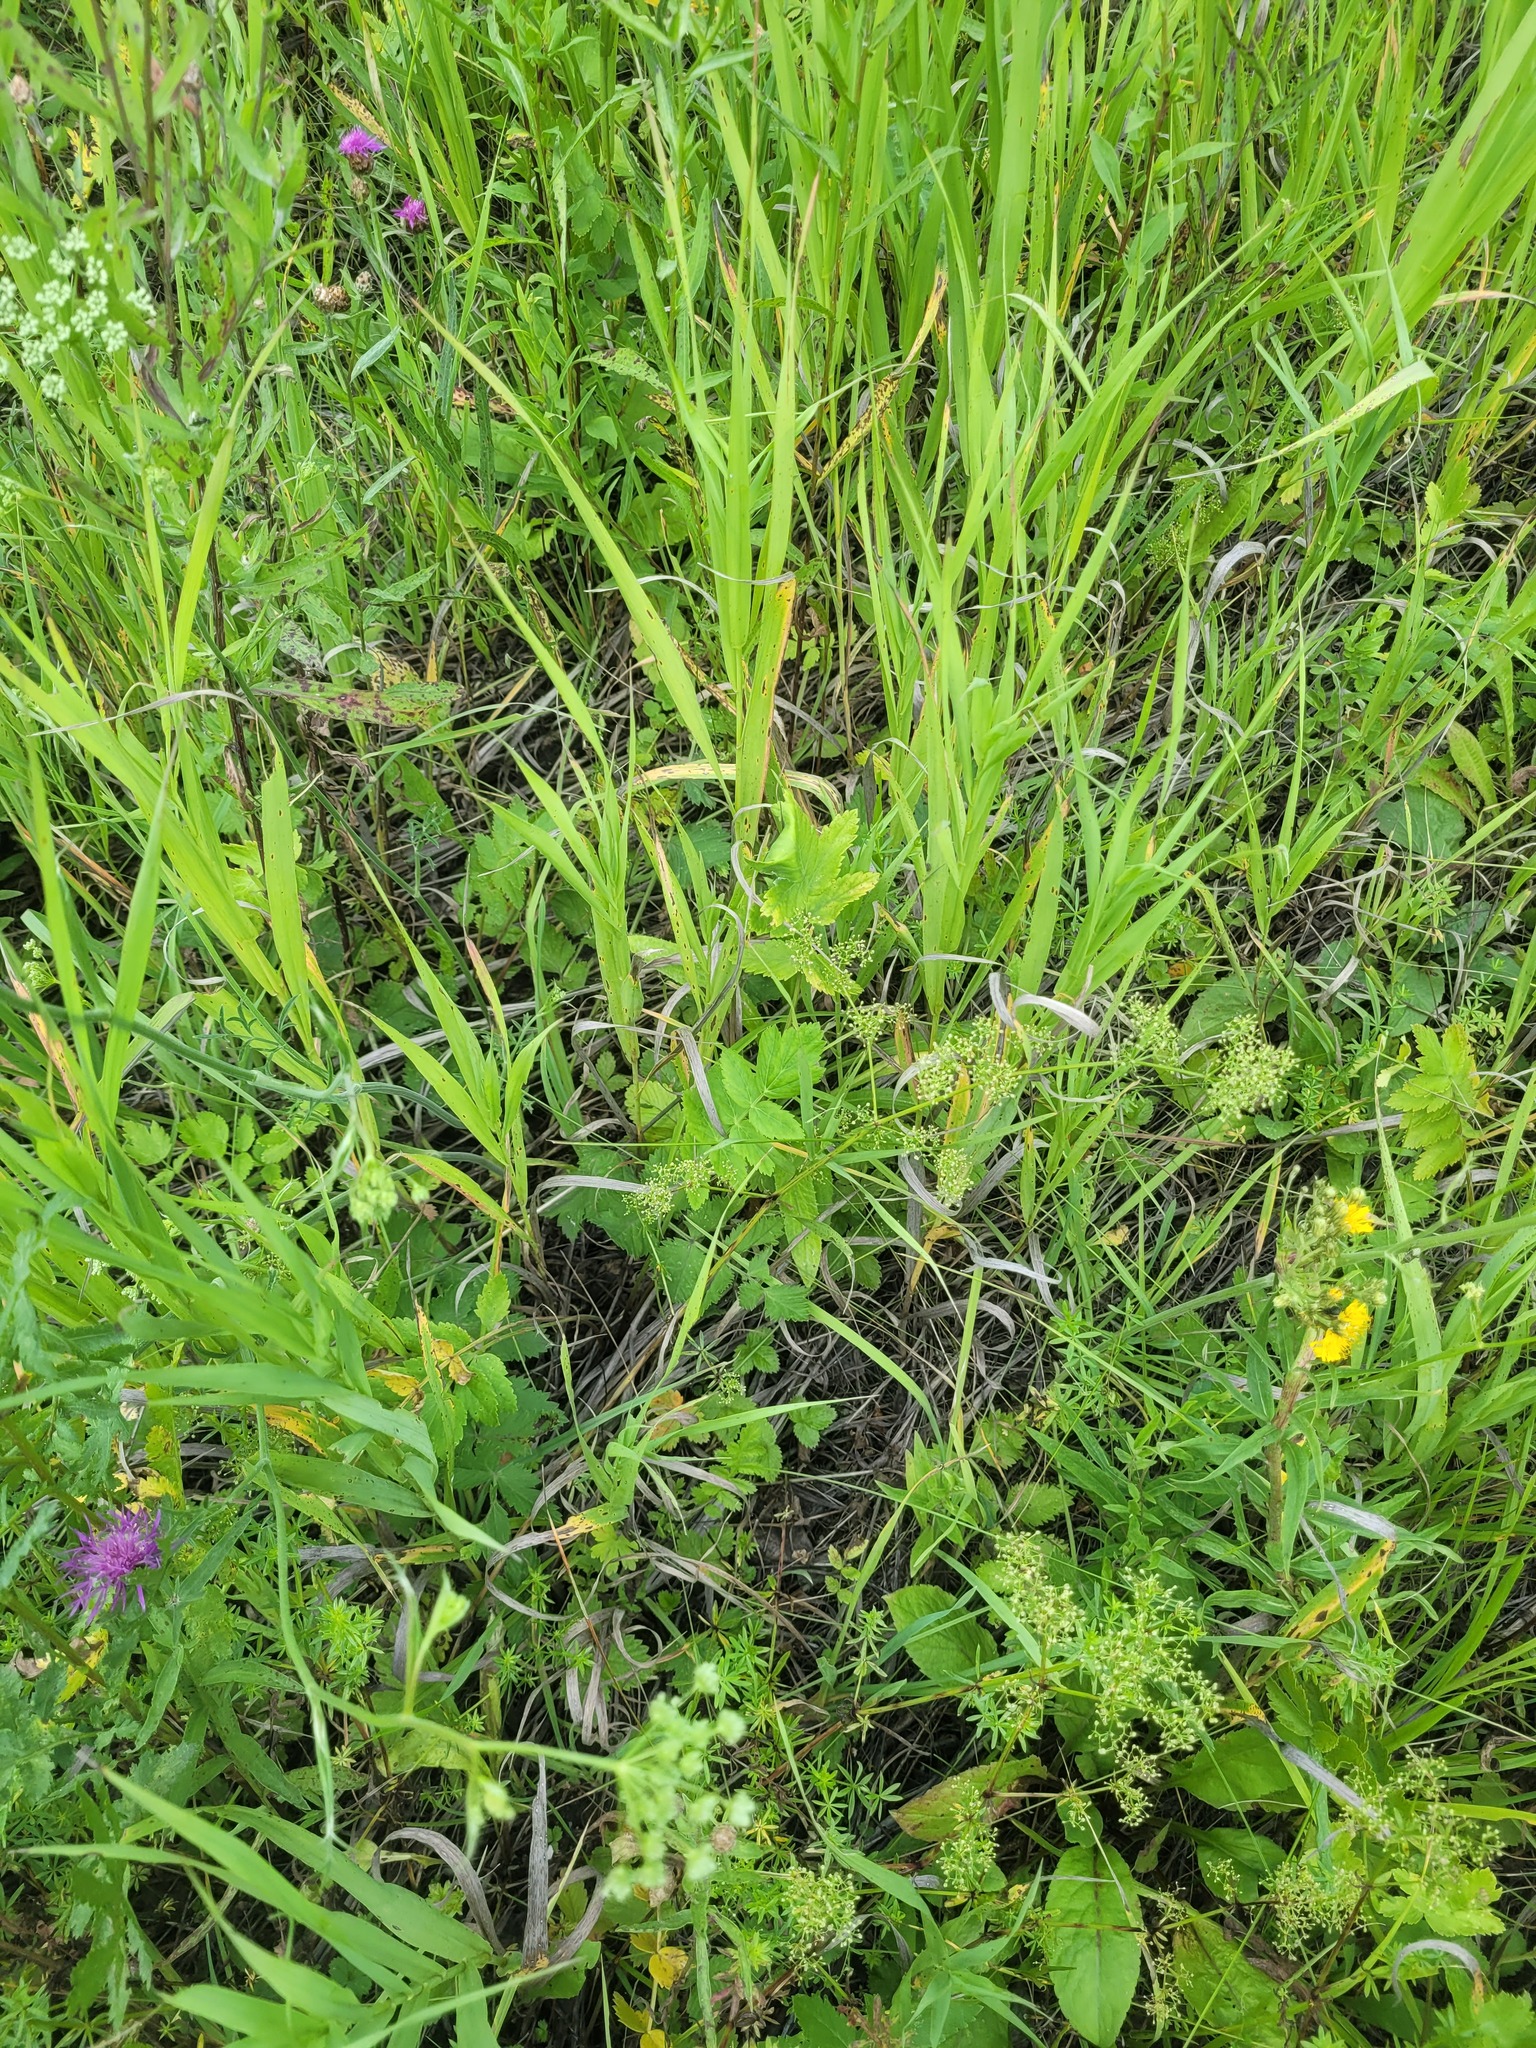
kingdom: Plantae
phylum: Tracheophyta
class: Magnoliopsida
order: Gentianales
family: Rubiaceae
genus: Galium
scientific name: Galium mollugo
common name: Hedge bedstraw
